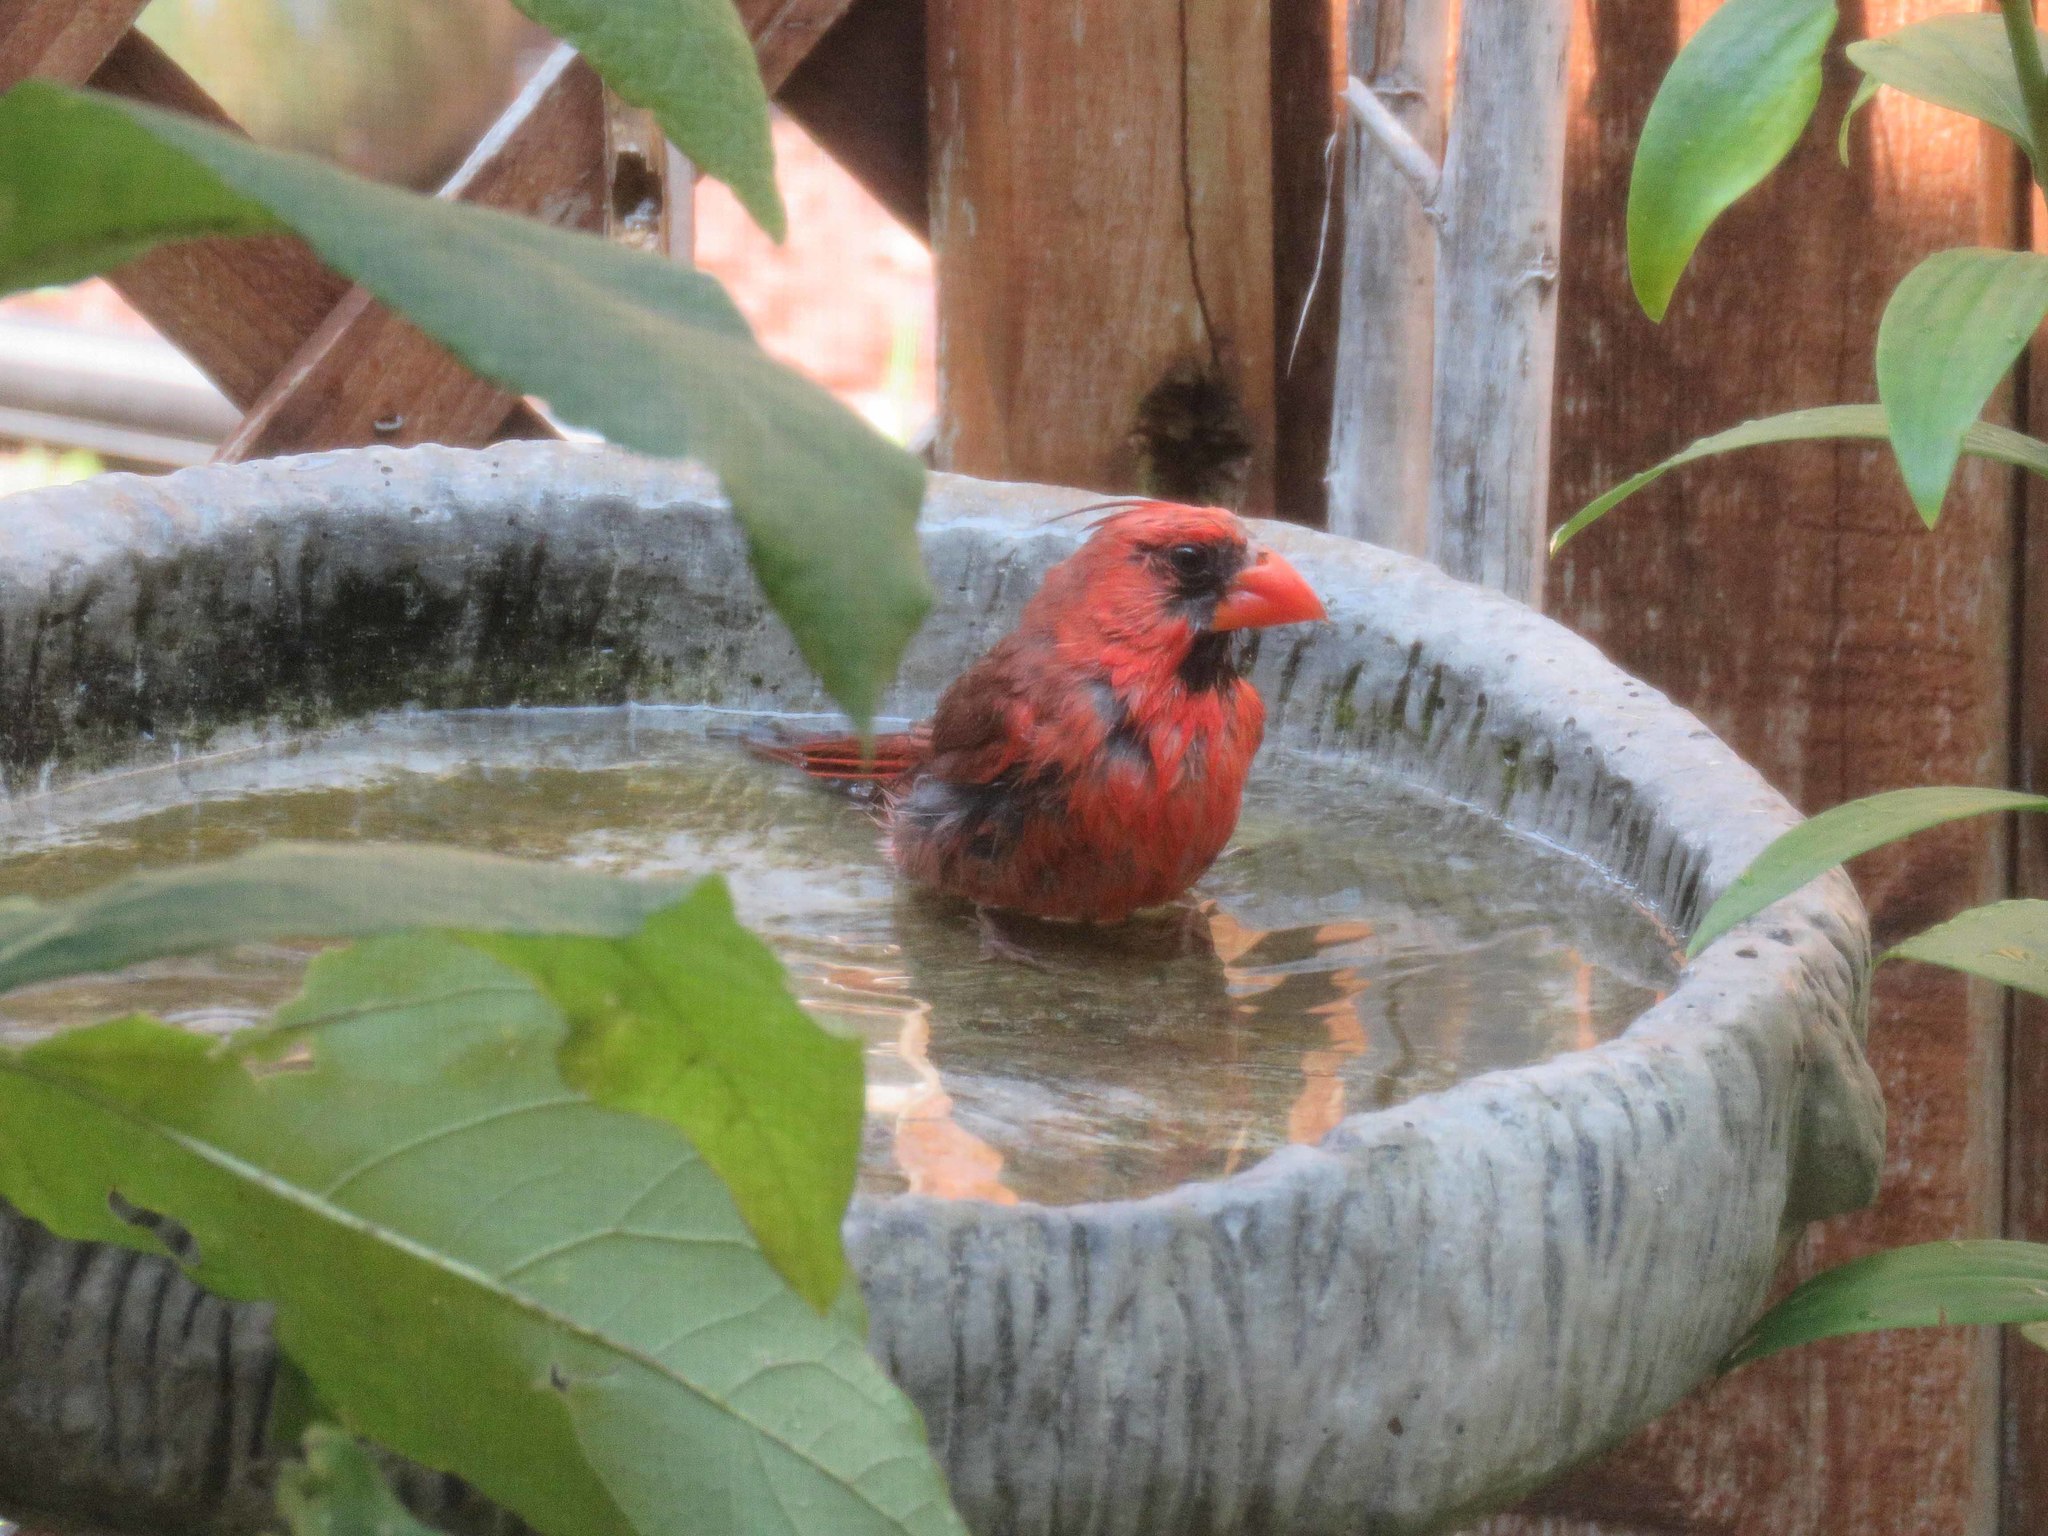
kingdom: Animalia
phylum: Chordata
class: Aves
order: Passeriformes
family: Cardinalidae
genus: Cardinalis
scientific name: Cardinalis cardinalis
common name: Northern cardinal
